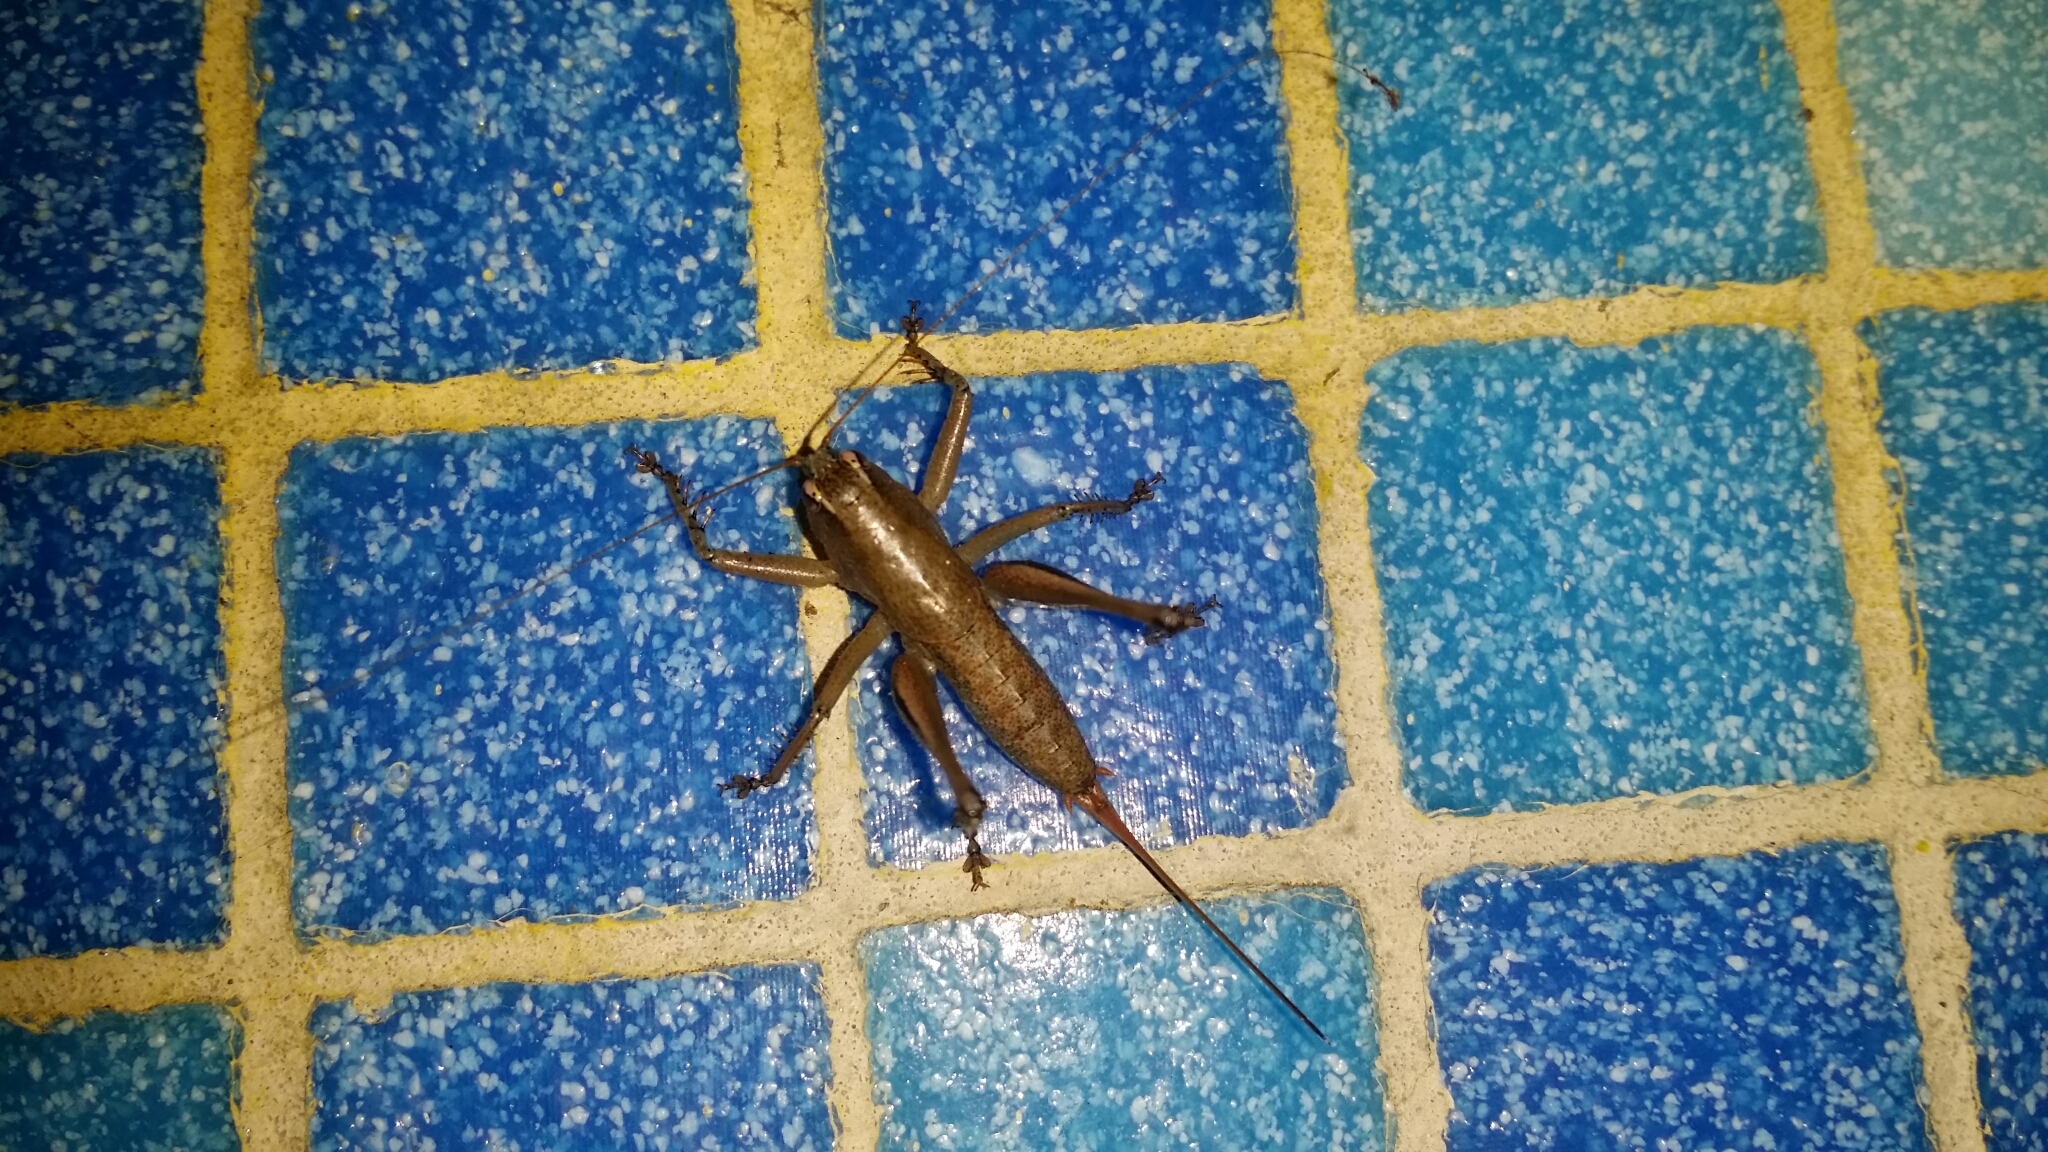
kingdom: Animalia
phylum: Arthropoda
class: Insecta
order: Orthoptera
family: Tettigoniidae
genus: Requena
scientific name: Requena verticalis
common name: Common western requena
